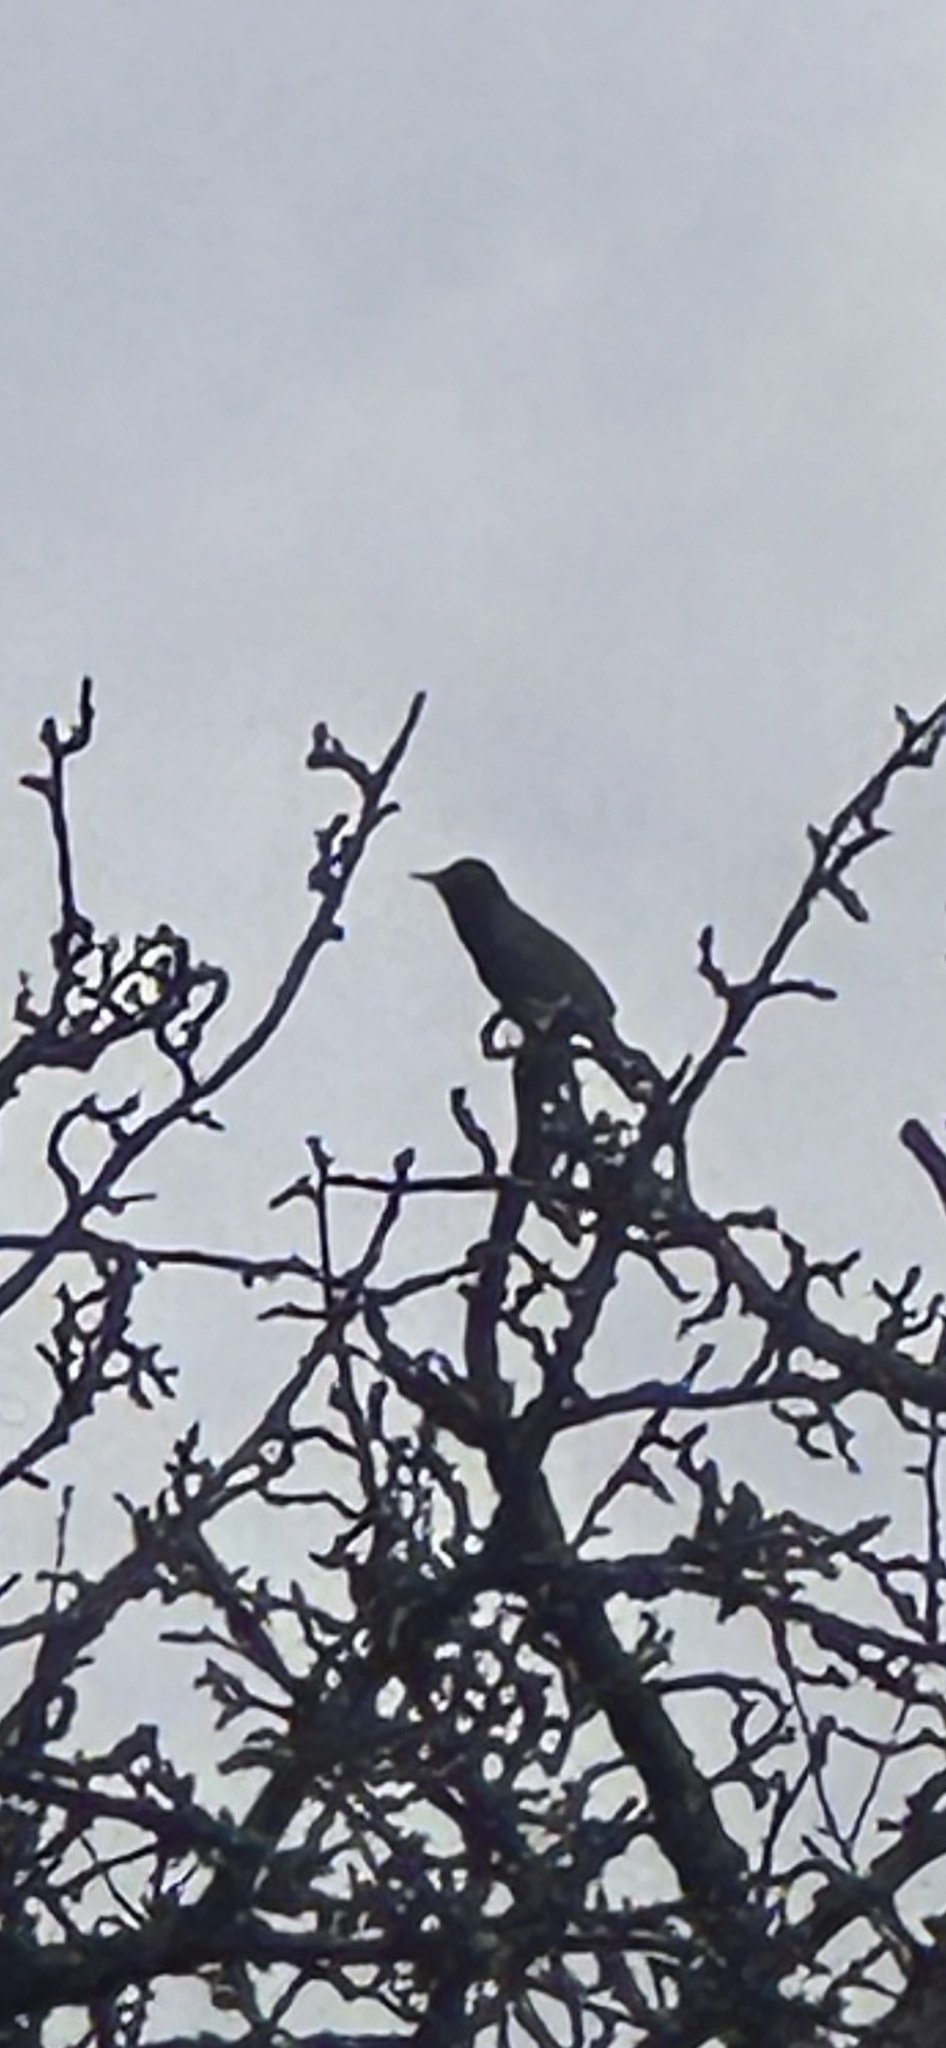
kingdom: Animalia
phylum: Chordata
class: Aves
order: Passeriformes
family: Sturnidae
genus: Sturnus
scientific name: Sturnus vulgaris
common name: Common starling
